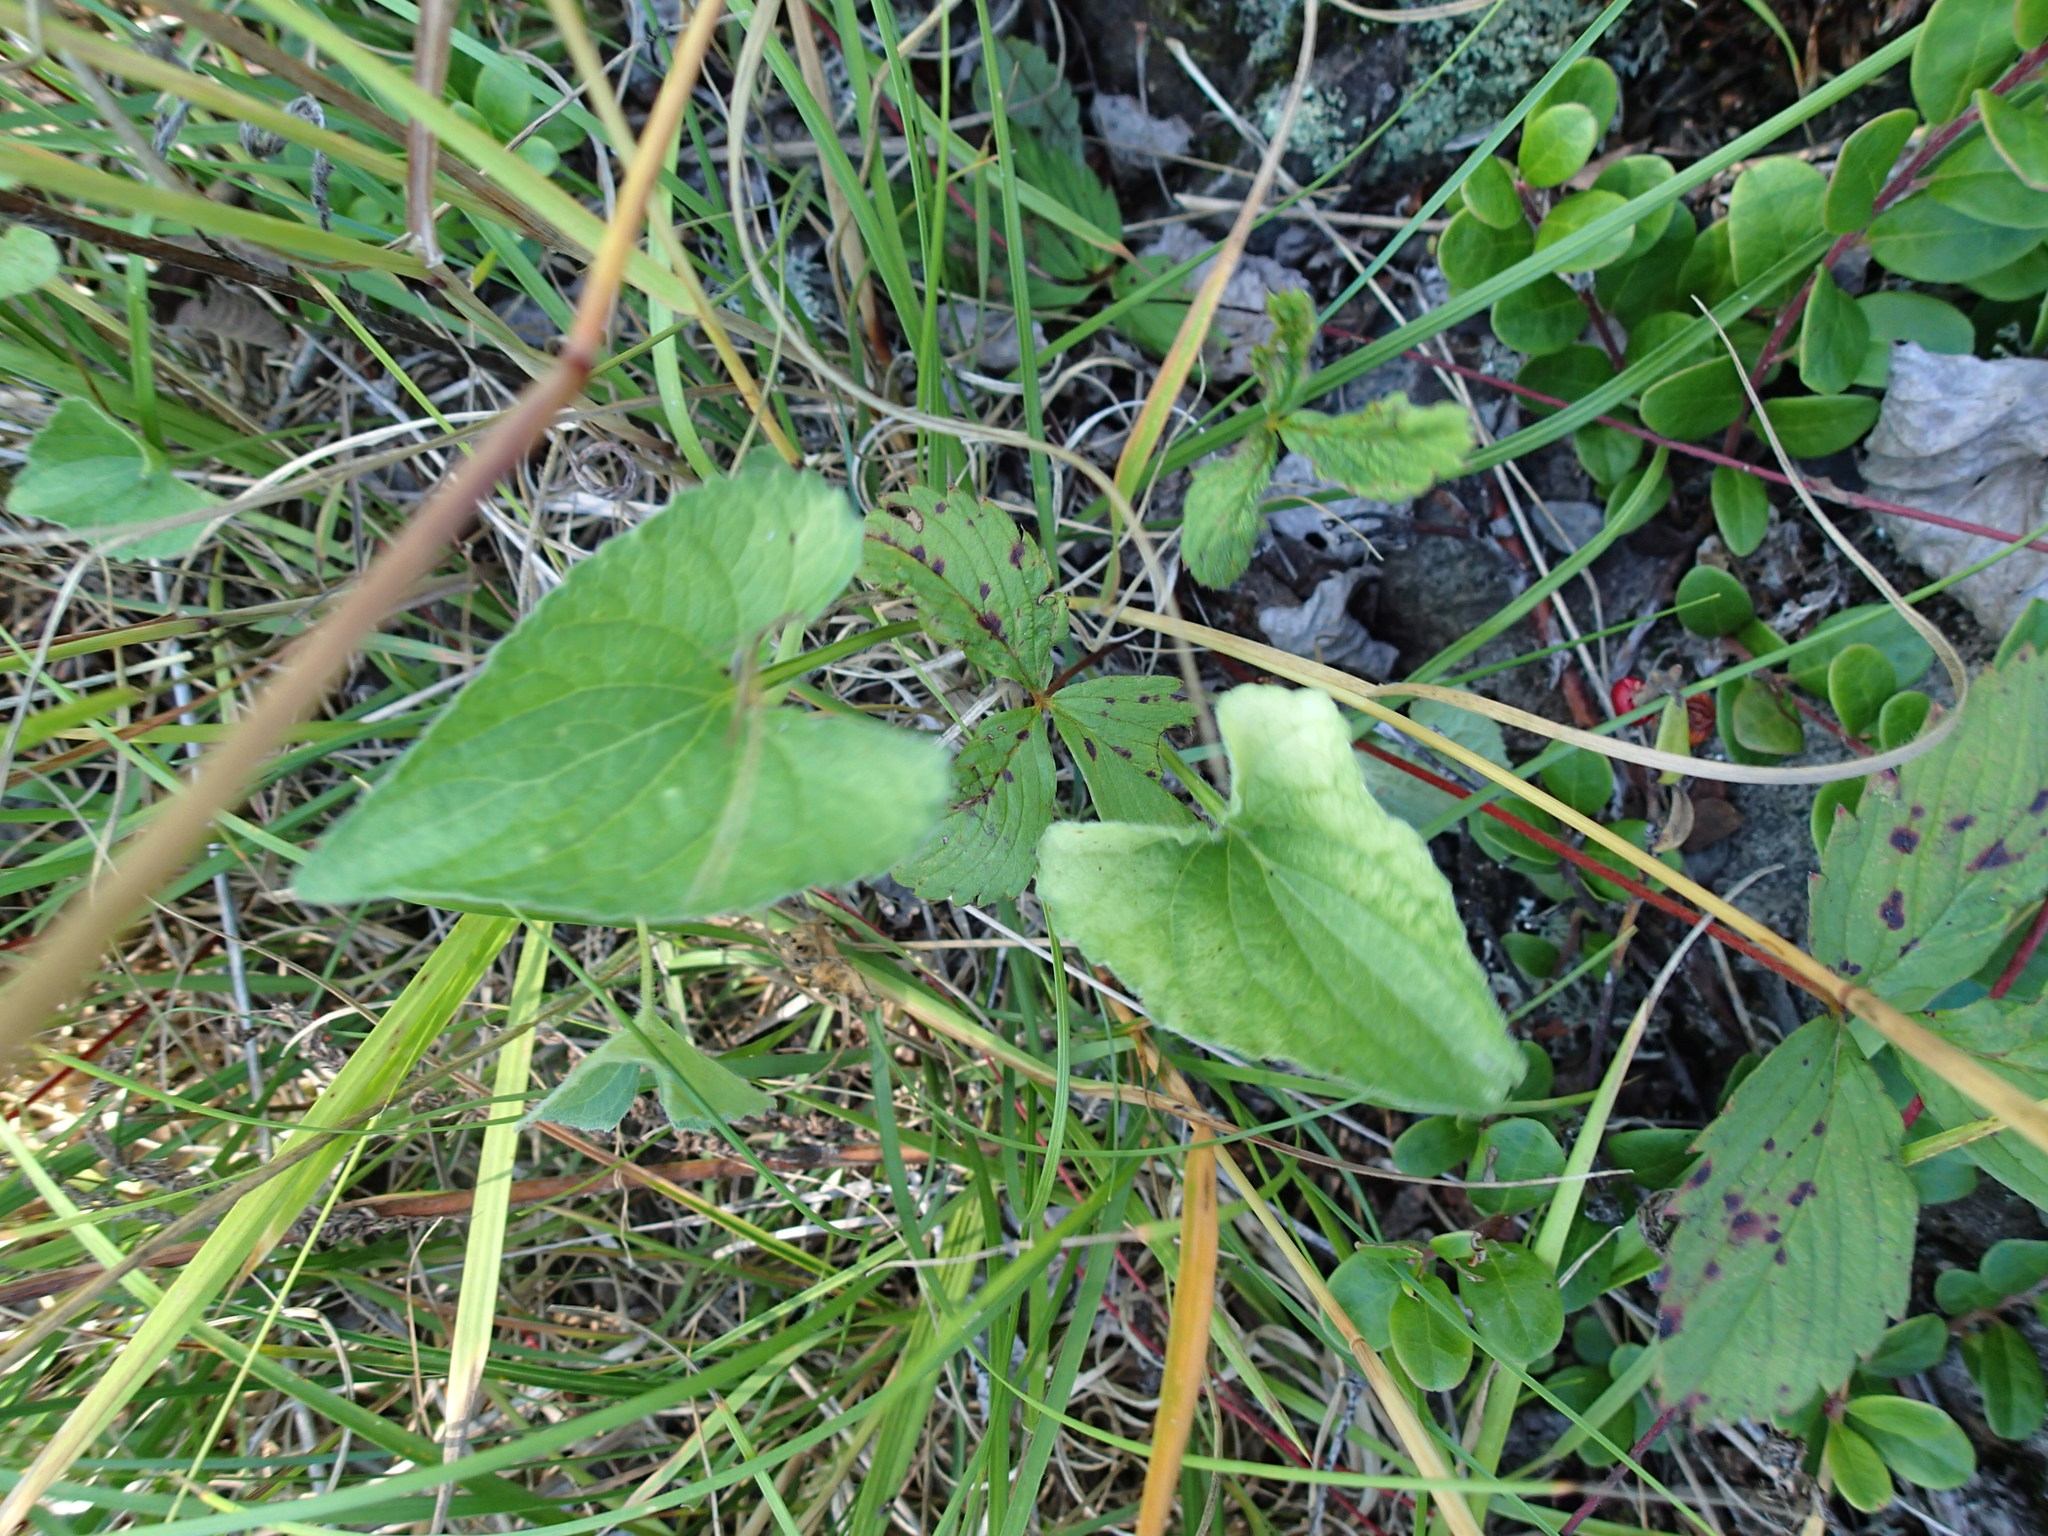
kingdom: Plantae
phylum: Tracheophyta
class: Magnoliopsida
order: Malpighiales
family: Violaceae
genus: Viola
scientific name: Viola novae-angliae
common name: New england blue violet
